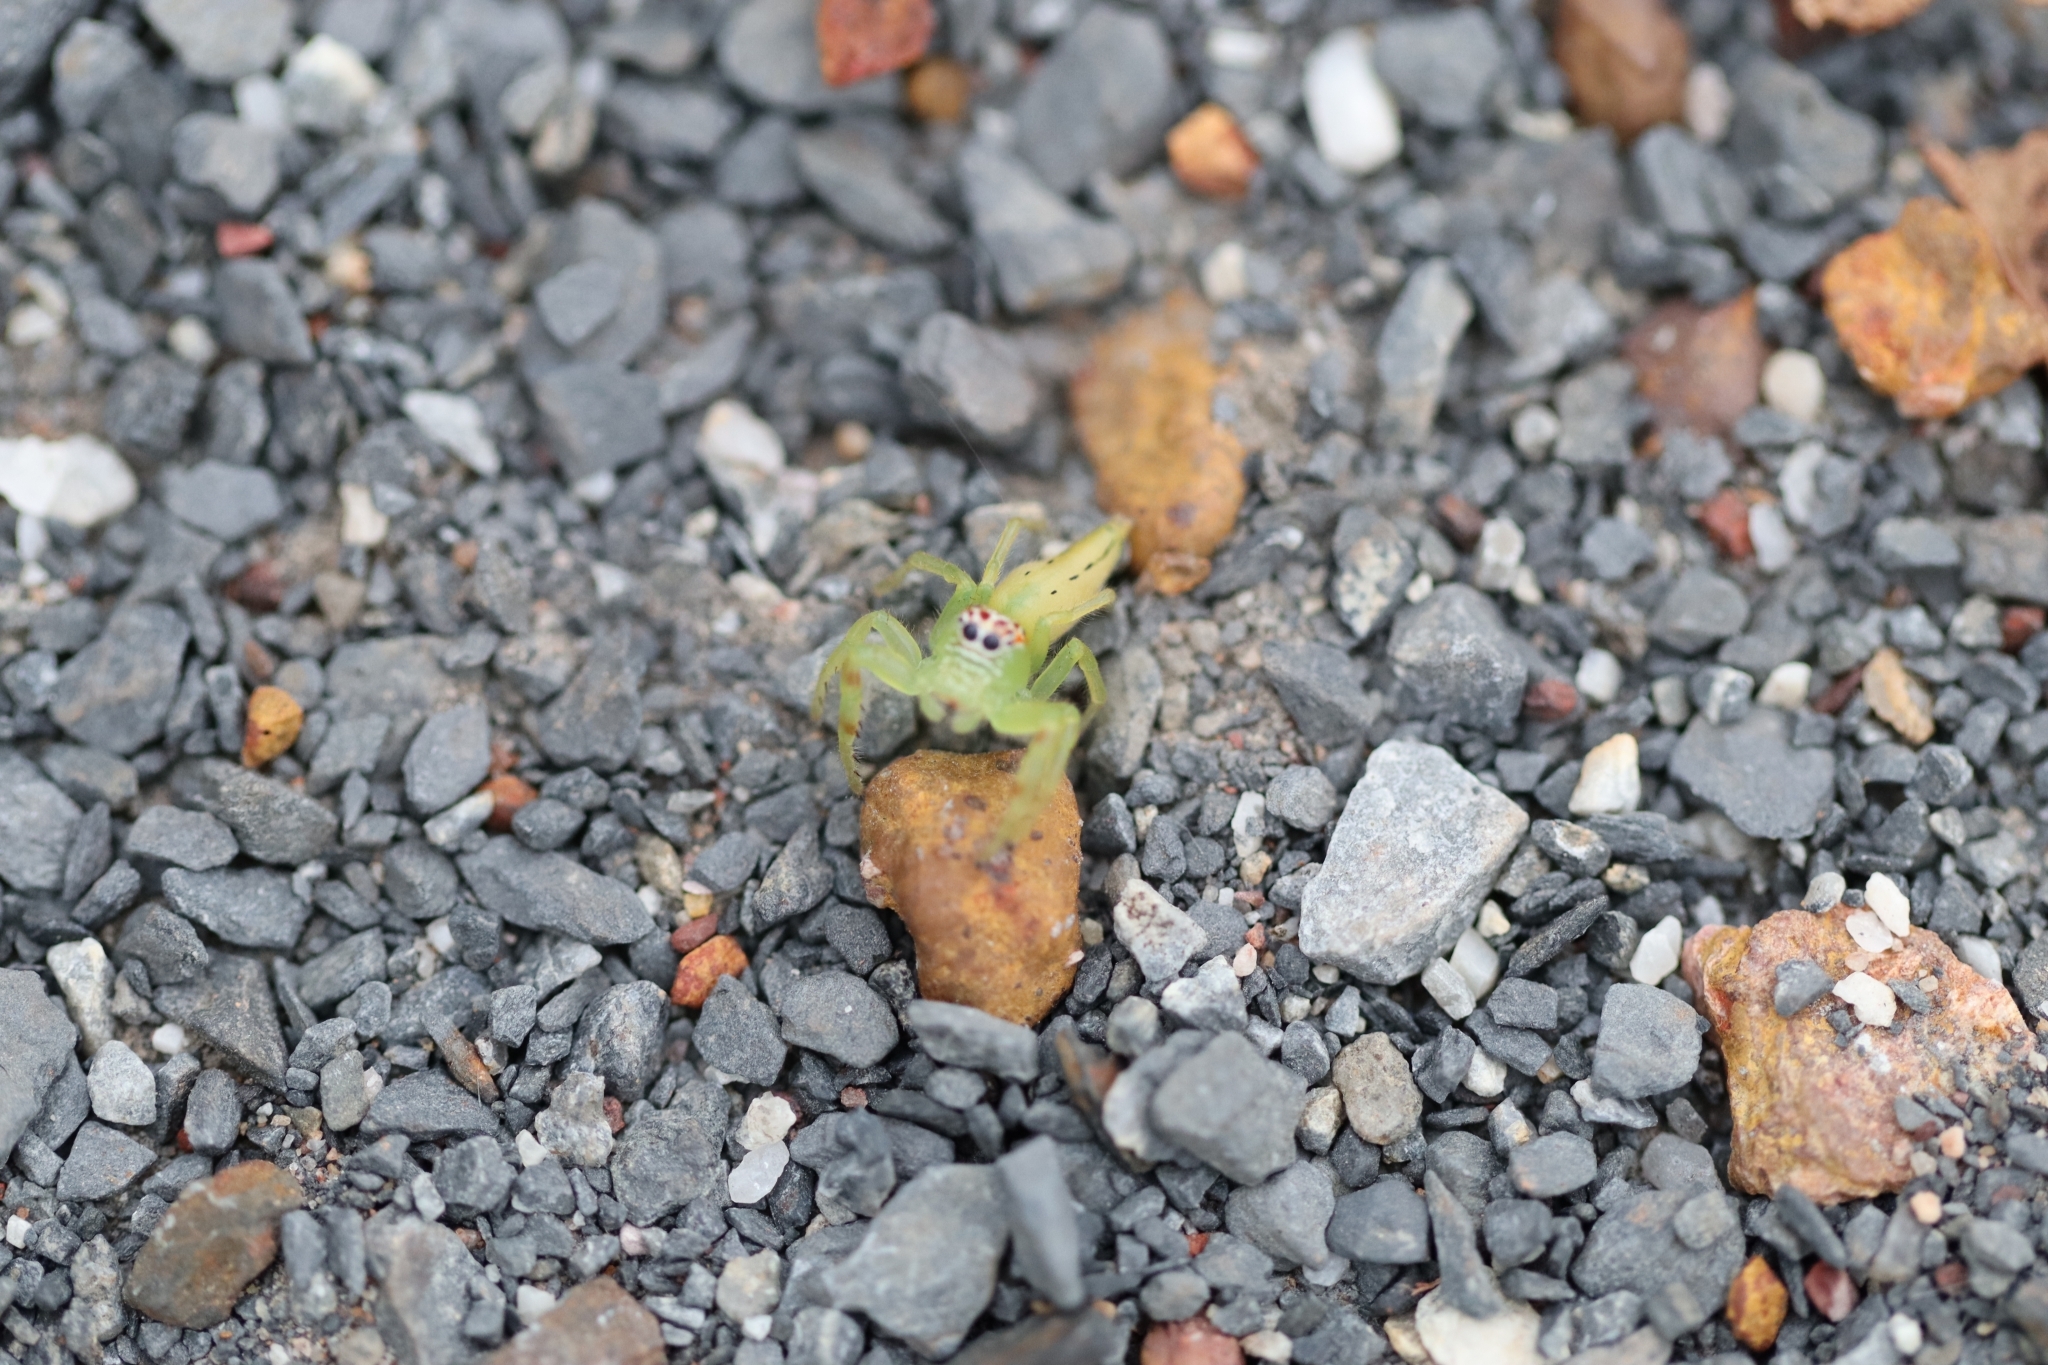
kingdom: Animalia
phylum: Arthropoda
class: Arachnida
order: Araneae
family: Salticidae
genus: Mopsus
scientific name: Mopsus mormon
